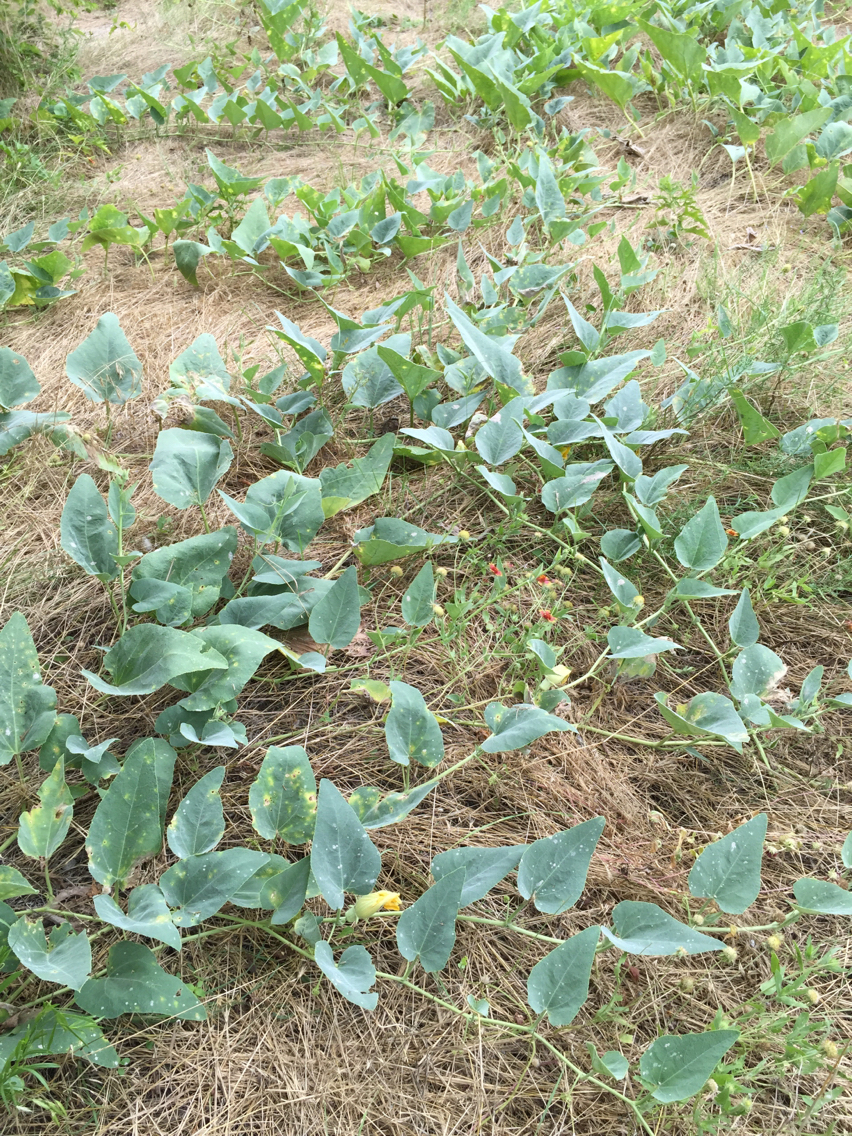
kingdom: Plantae
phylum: Tracheophyta
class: Magnoliopsida
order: Cucurbitales
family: Cucurbitaceae
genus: Cucurbita
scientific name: Cucurbita foetidissima
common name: Buffalo gourd
